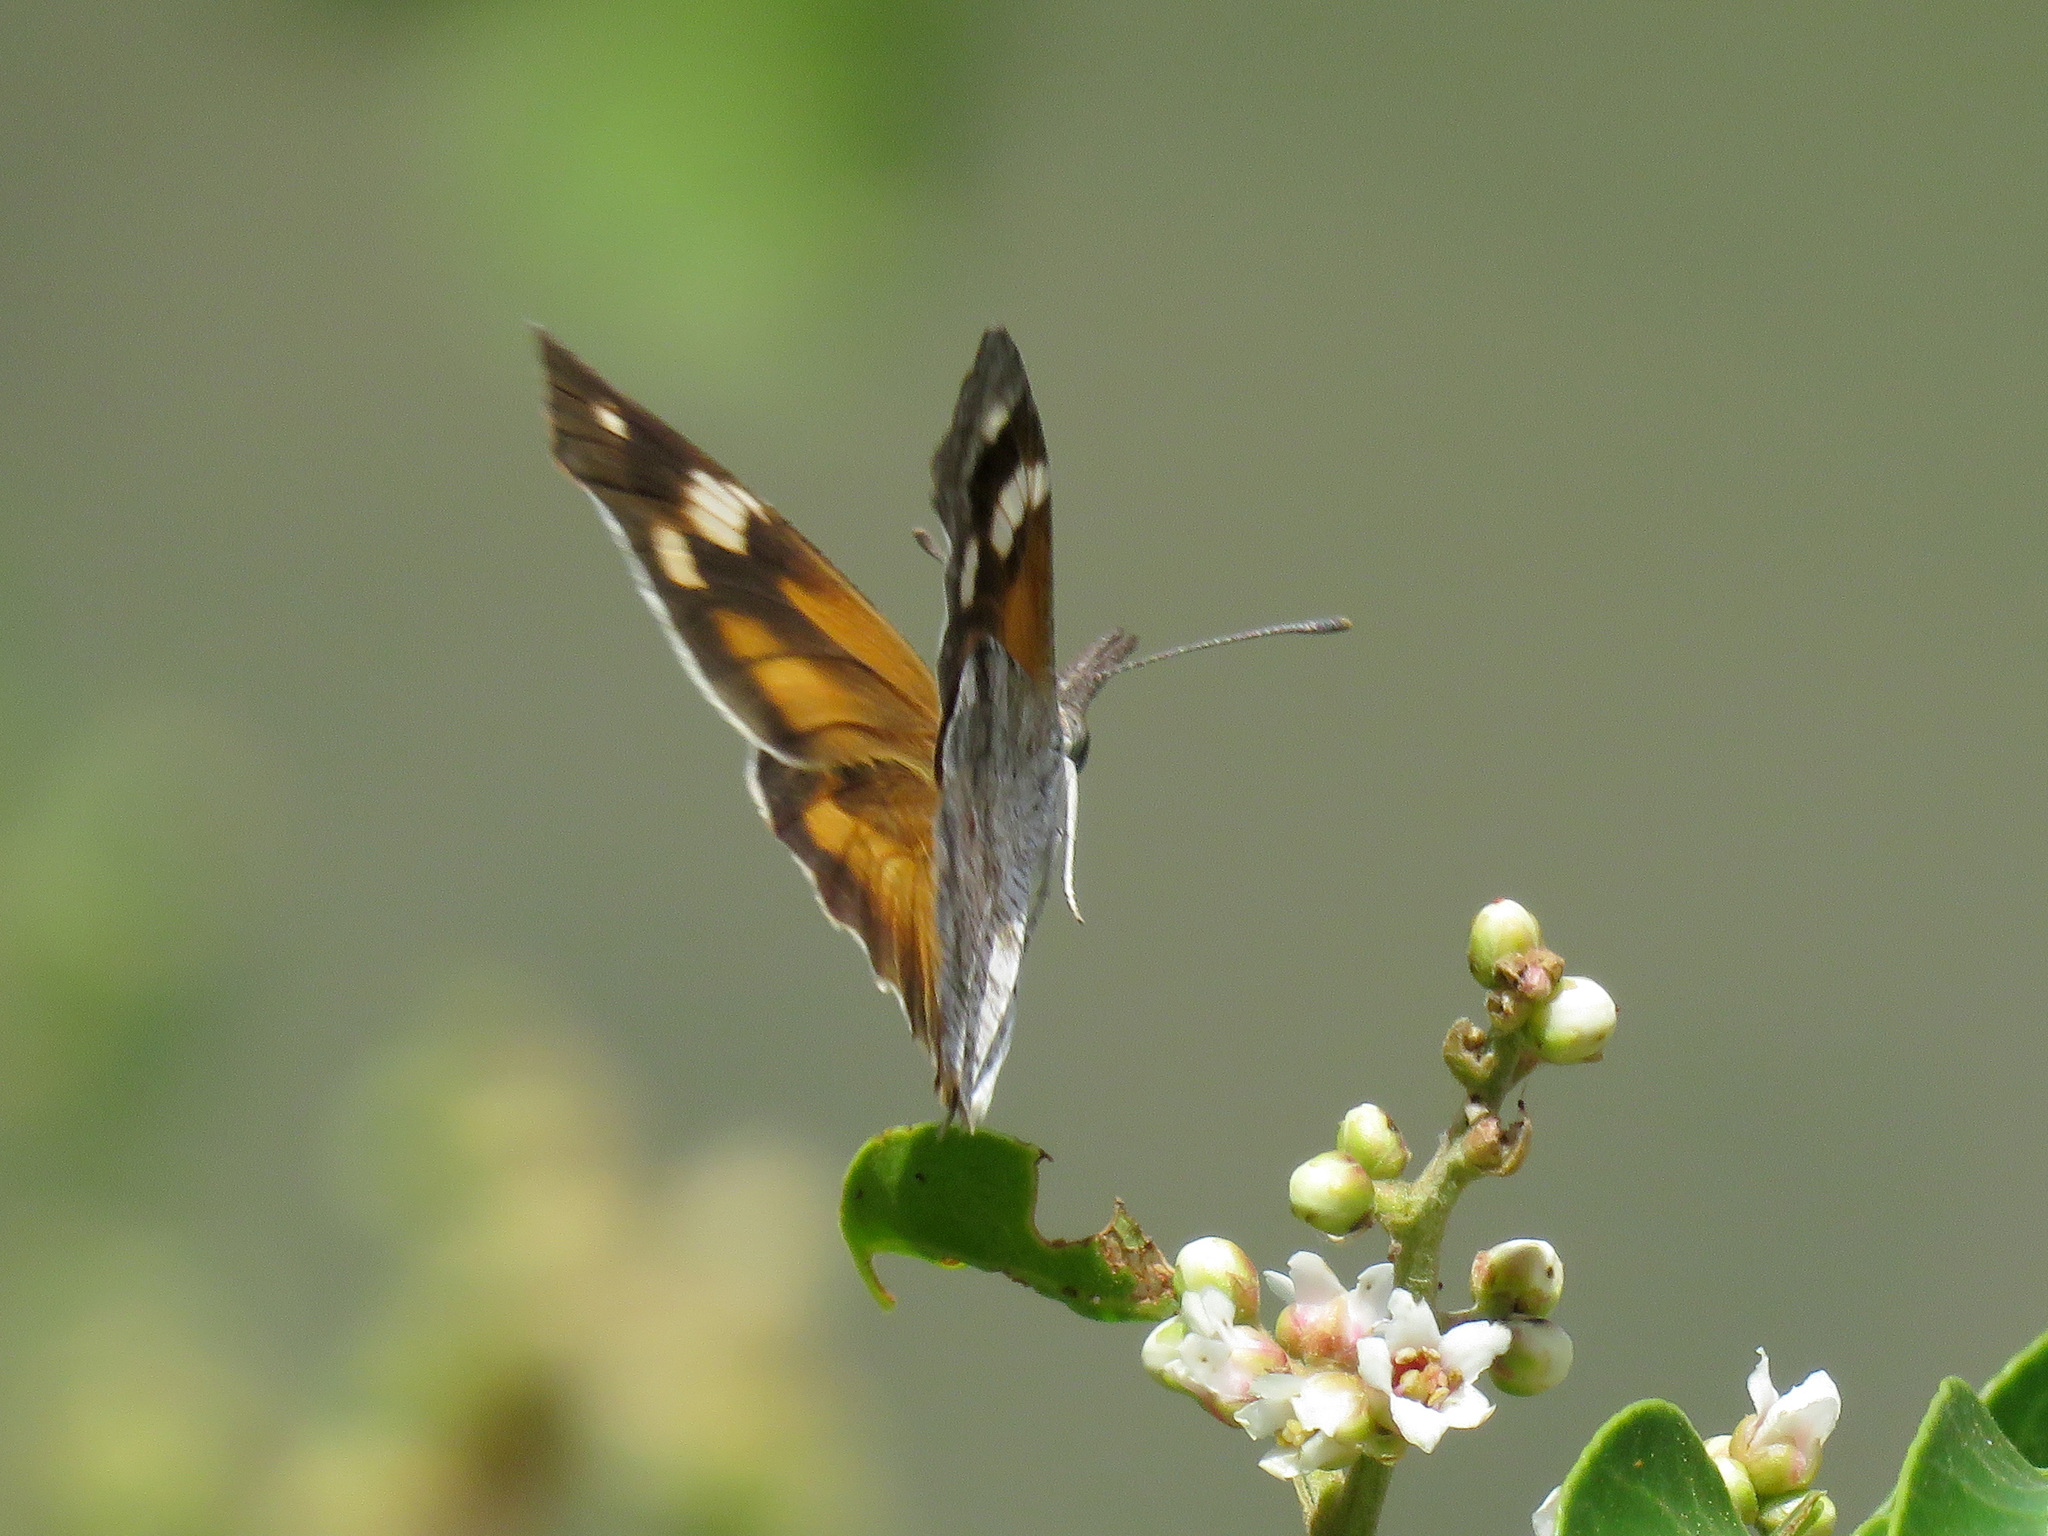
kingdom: Animalia
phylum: Arthropoda
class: Insecta
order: Lepidoptera
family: Nymphalidae
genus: Libytheana
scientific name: Libytheana carinenta
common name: American snout
